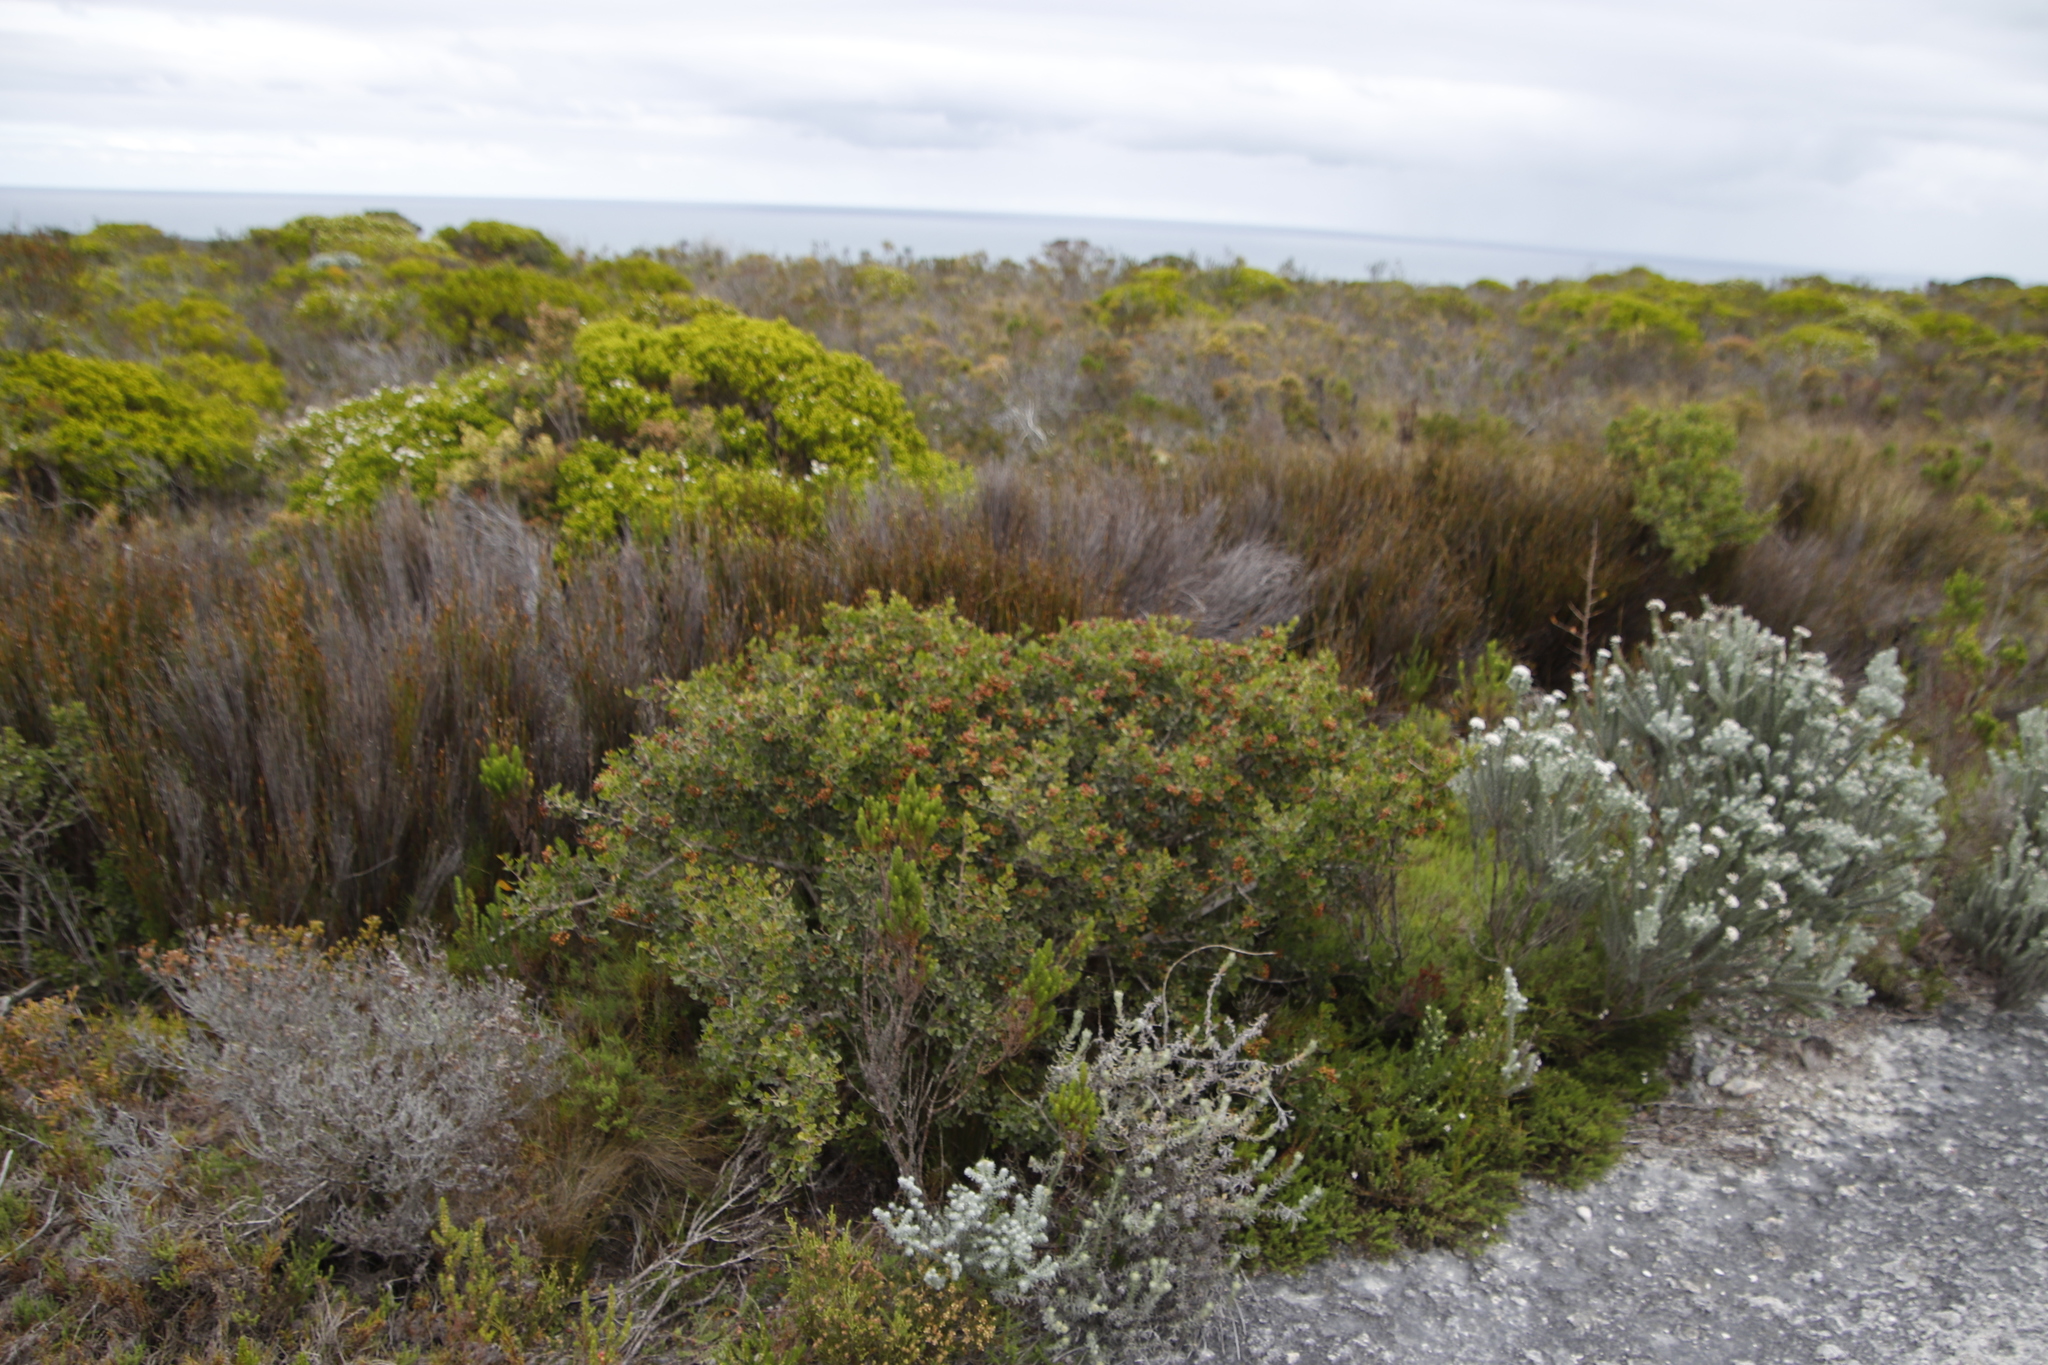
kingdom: Plantae
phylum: Tracheophyta
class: Magnoliopsida
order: Sapindales
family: Anacardiaceae
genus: Searsia
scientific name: Searsia glauca
